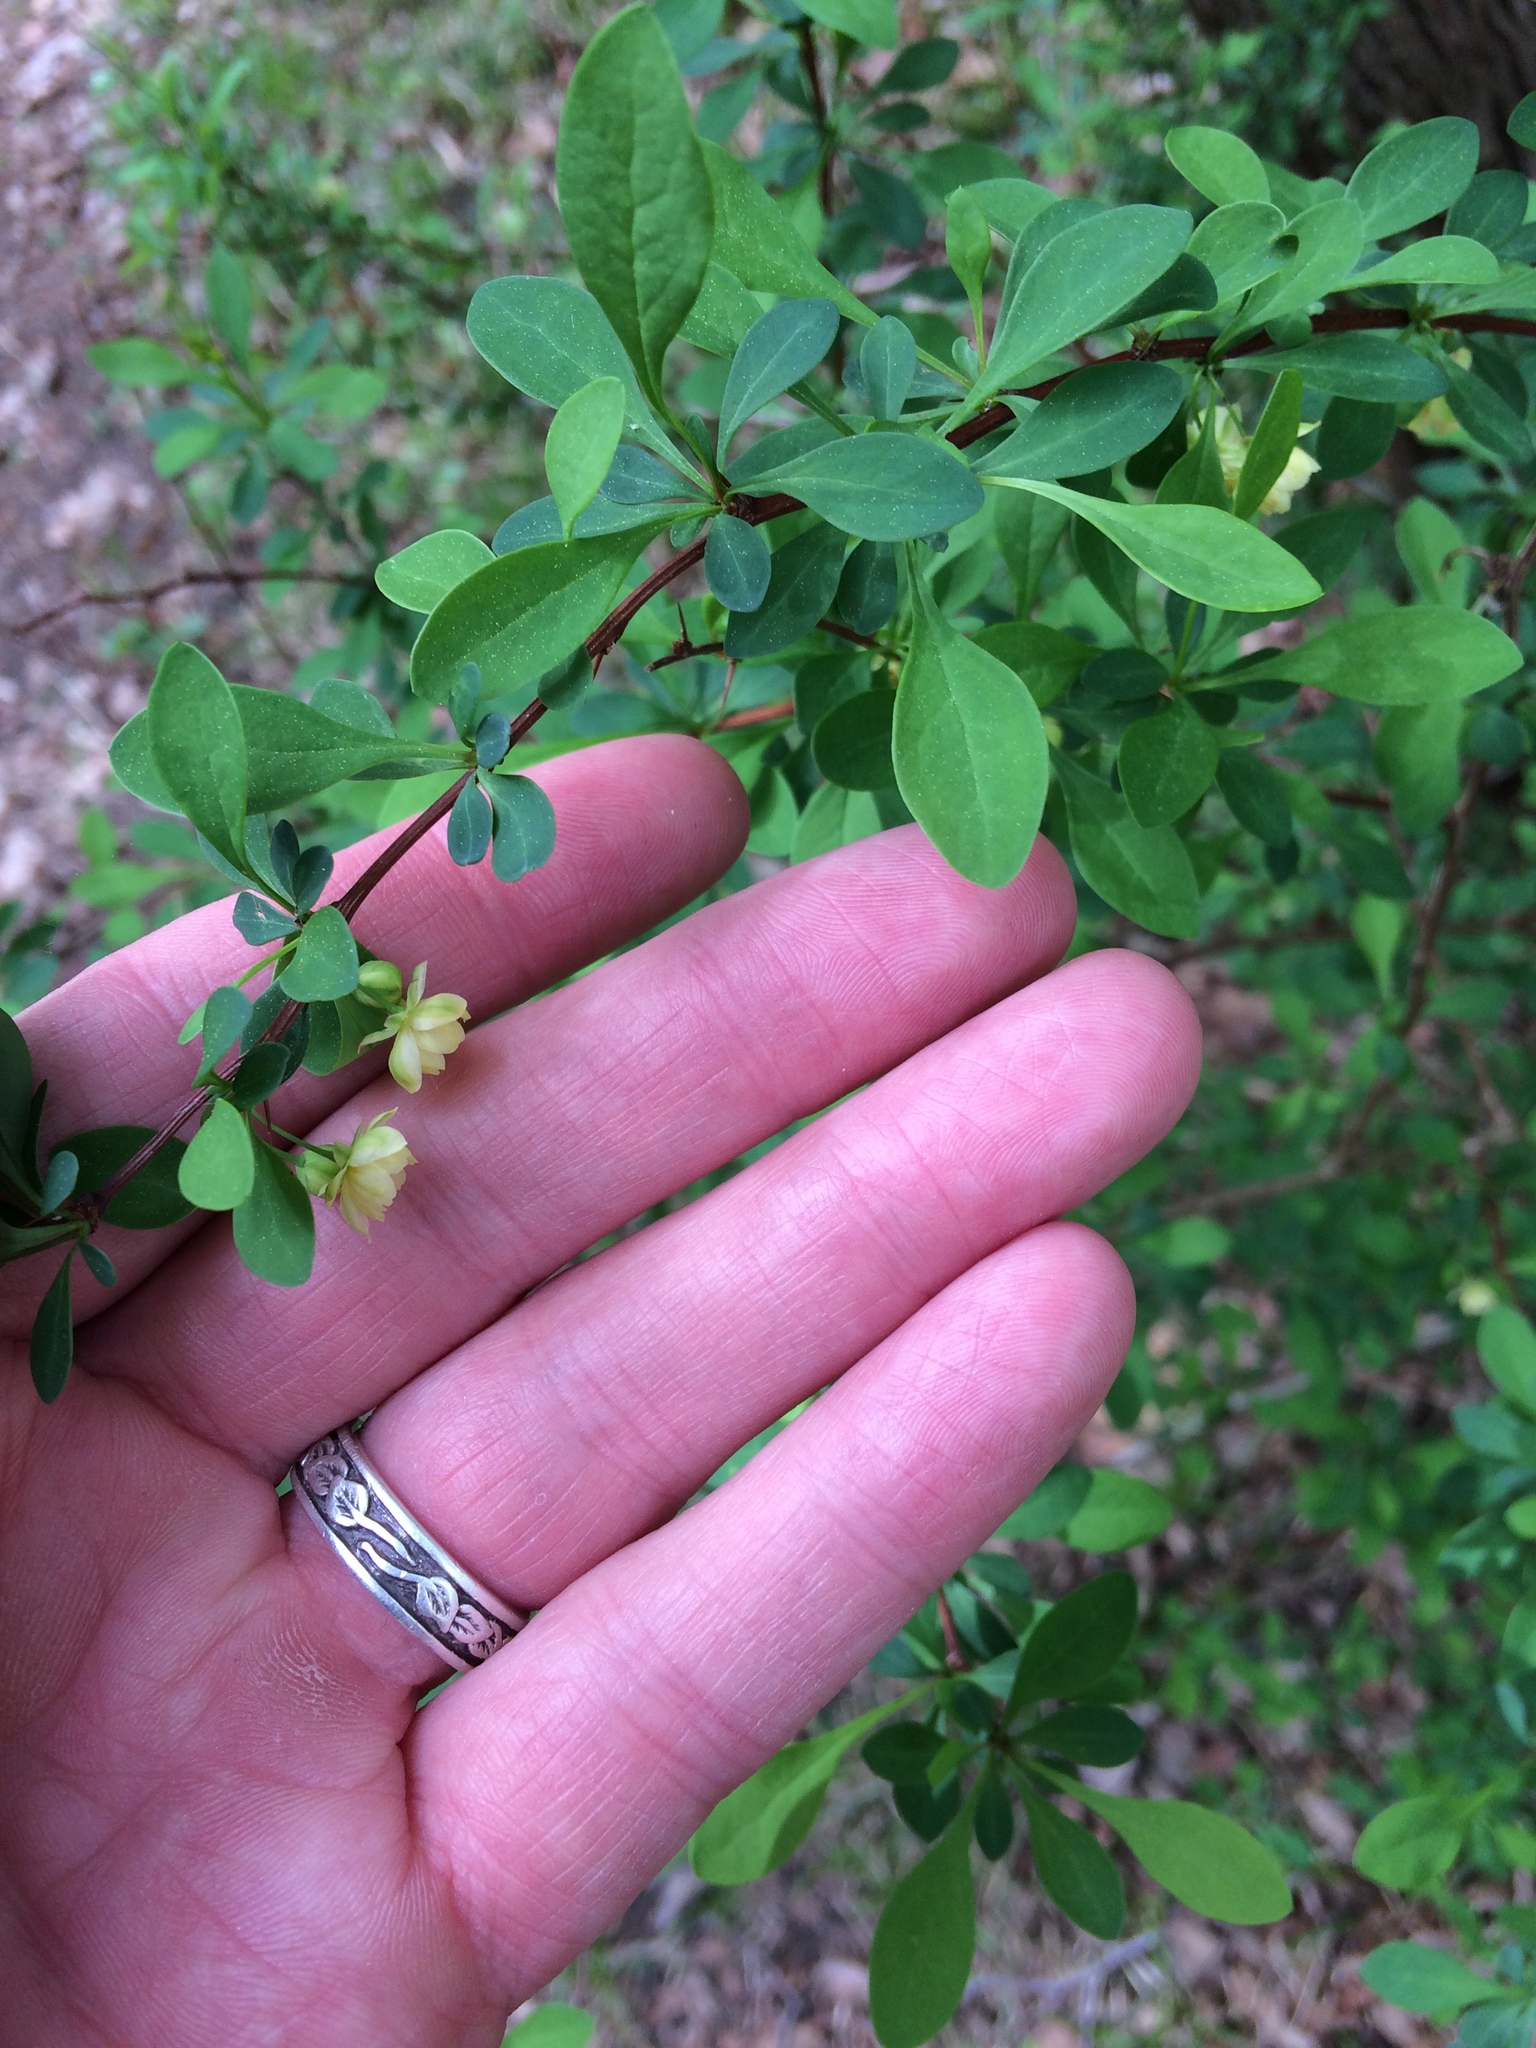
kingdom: Plantae
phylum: Tracheophyta
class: Magnoliopsida
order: Ranunculales
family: Berberidaceae
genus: Berberis
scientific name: Berberis thunbergii
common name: Japanese barberry
